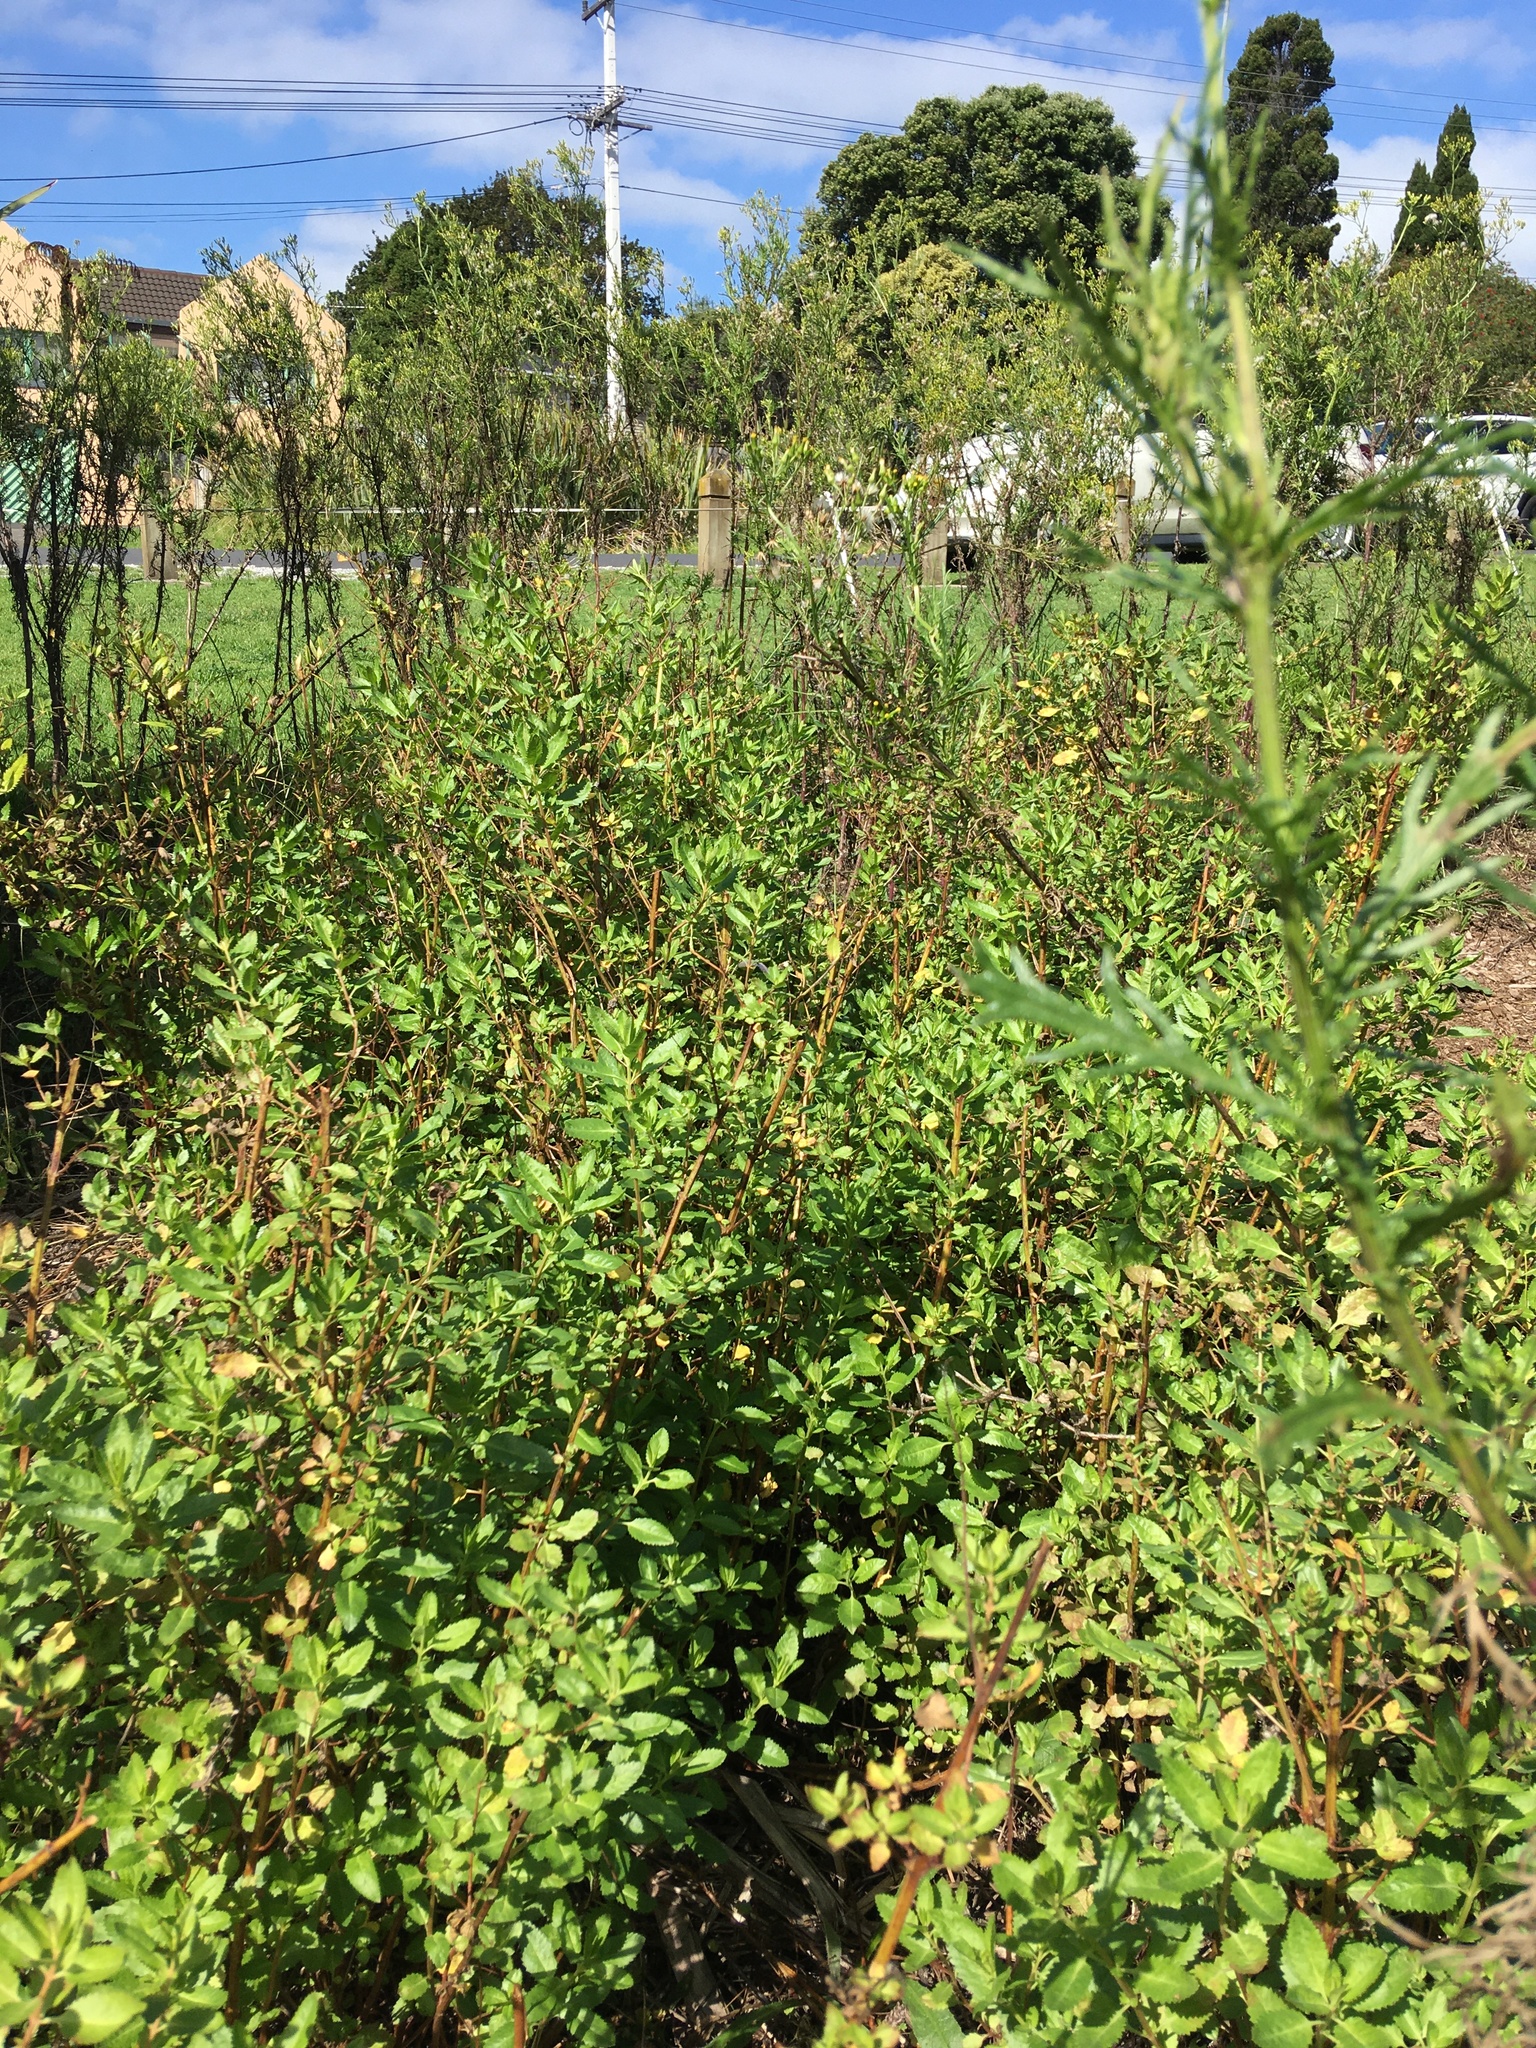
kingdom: Plantae
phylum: Tracheophyta
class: Magnoliopsida
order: Saxifragales
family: Haloragaceae
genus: Haloragis
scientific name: Haloragis erecta
